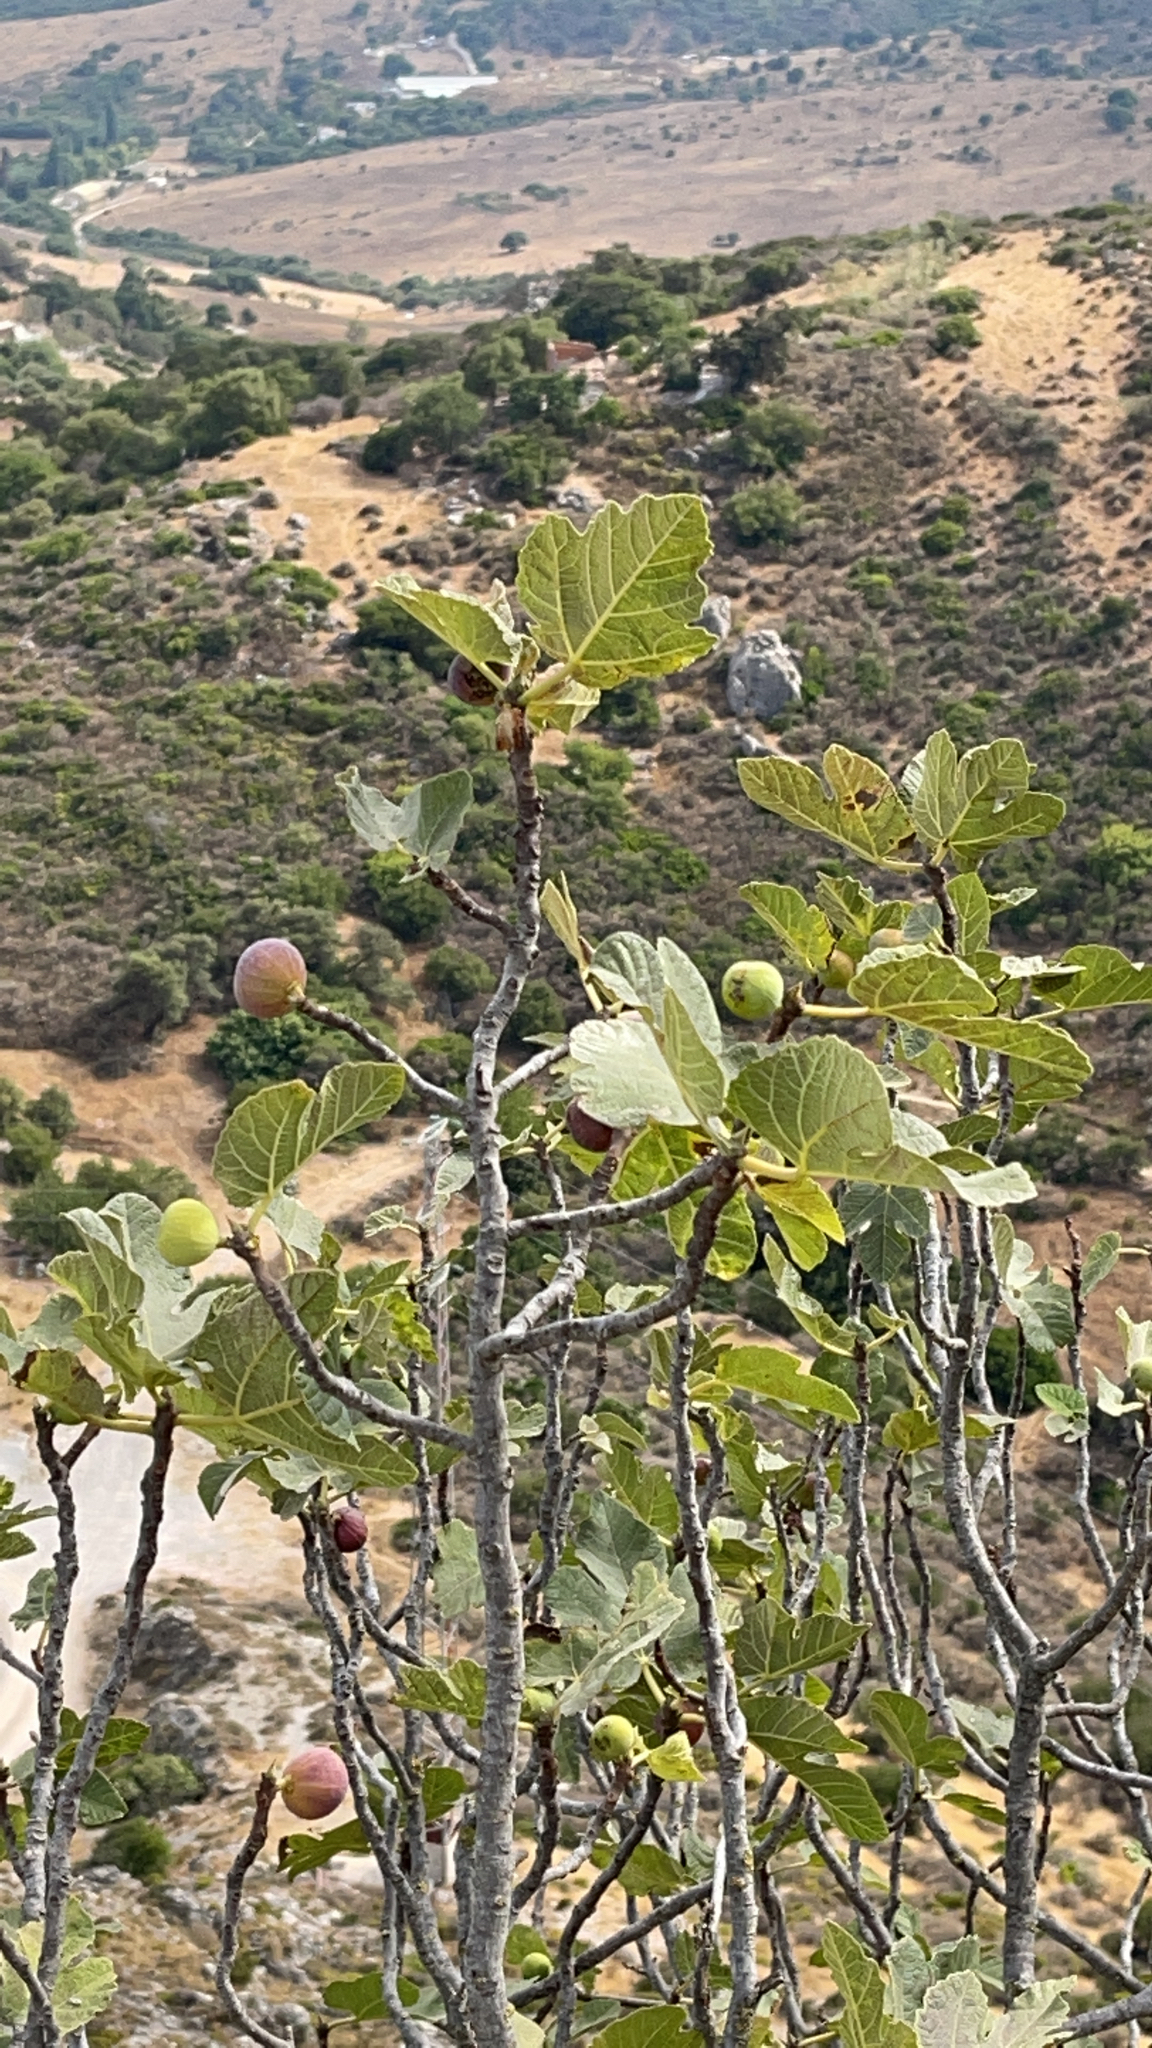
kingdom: Plantae
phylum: Tracheophyta
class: Magnoliopsida
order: Rosales
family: Moraceae
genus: Ficus
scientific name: Ficus carica
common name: Fig
